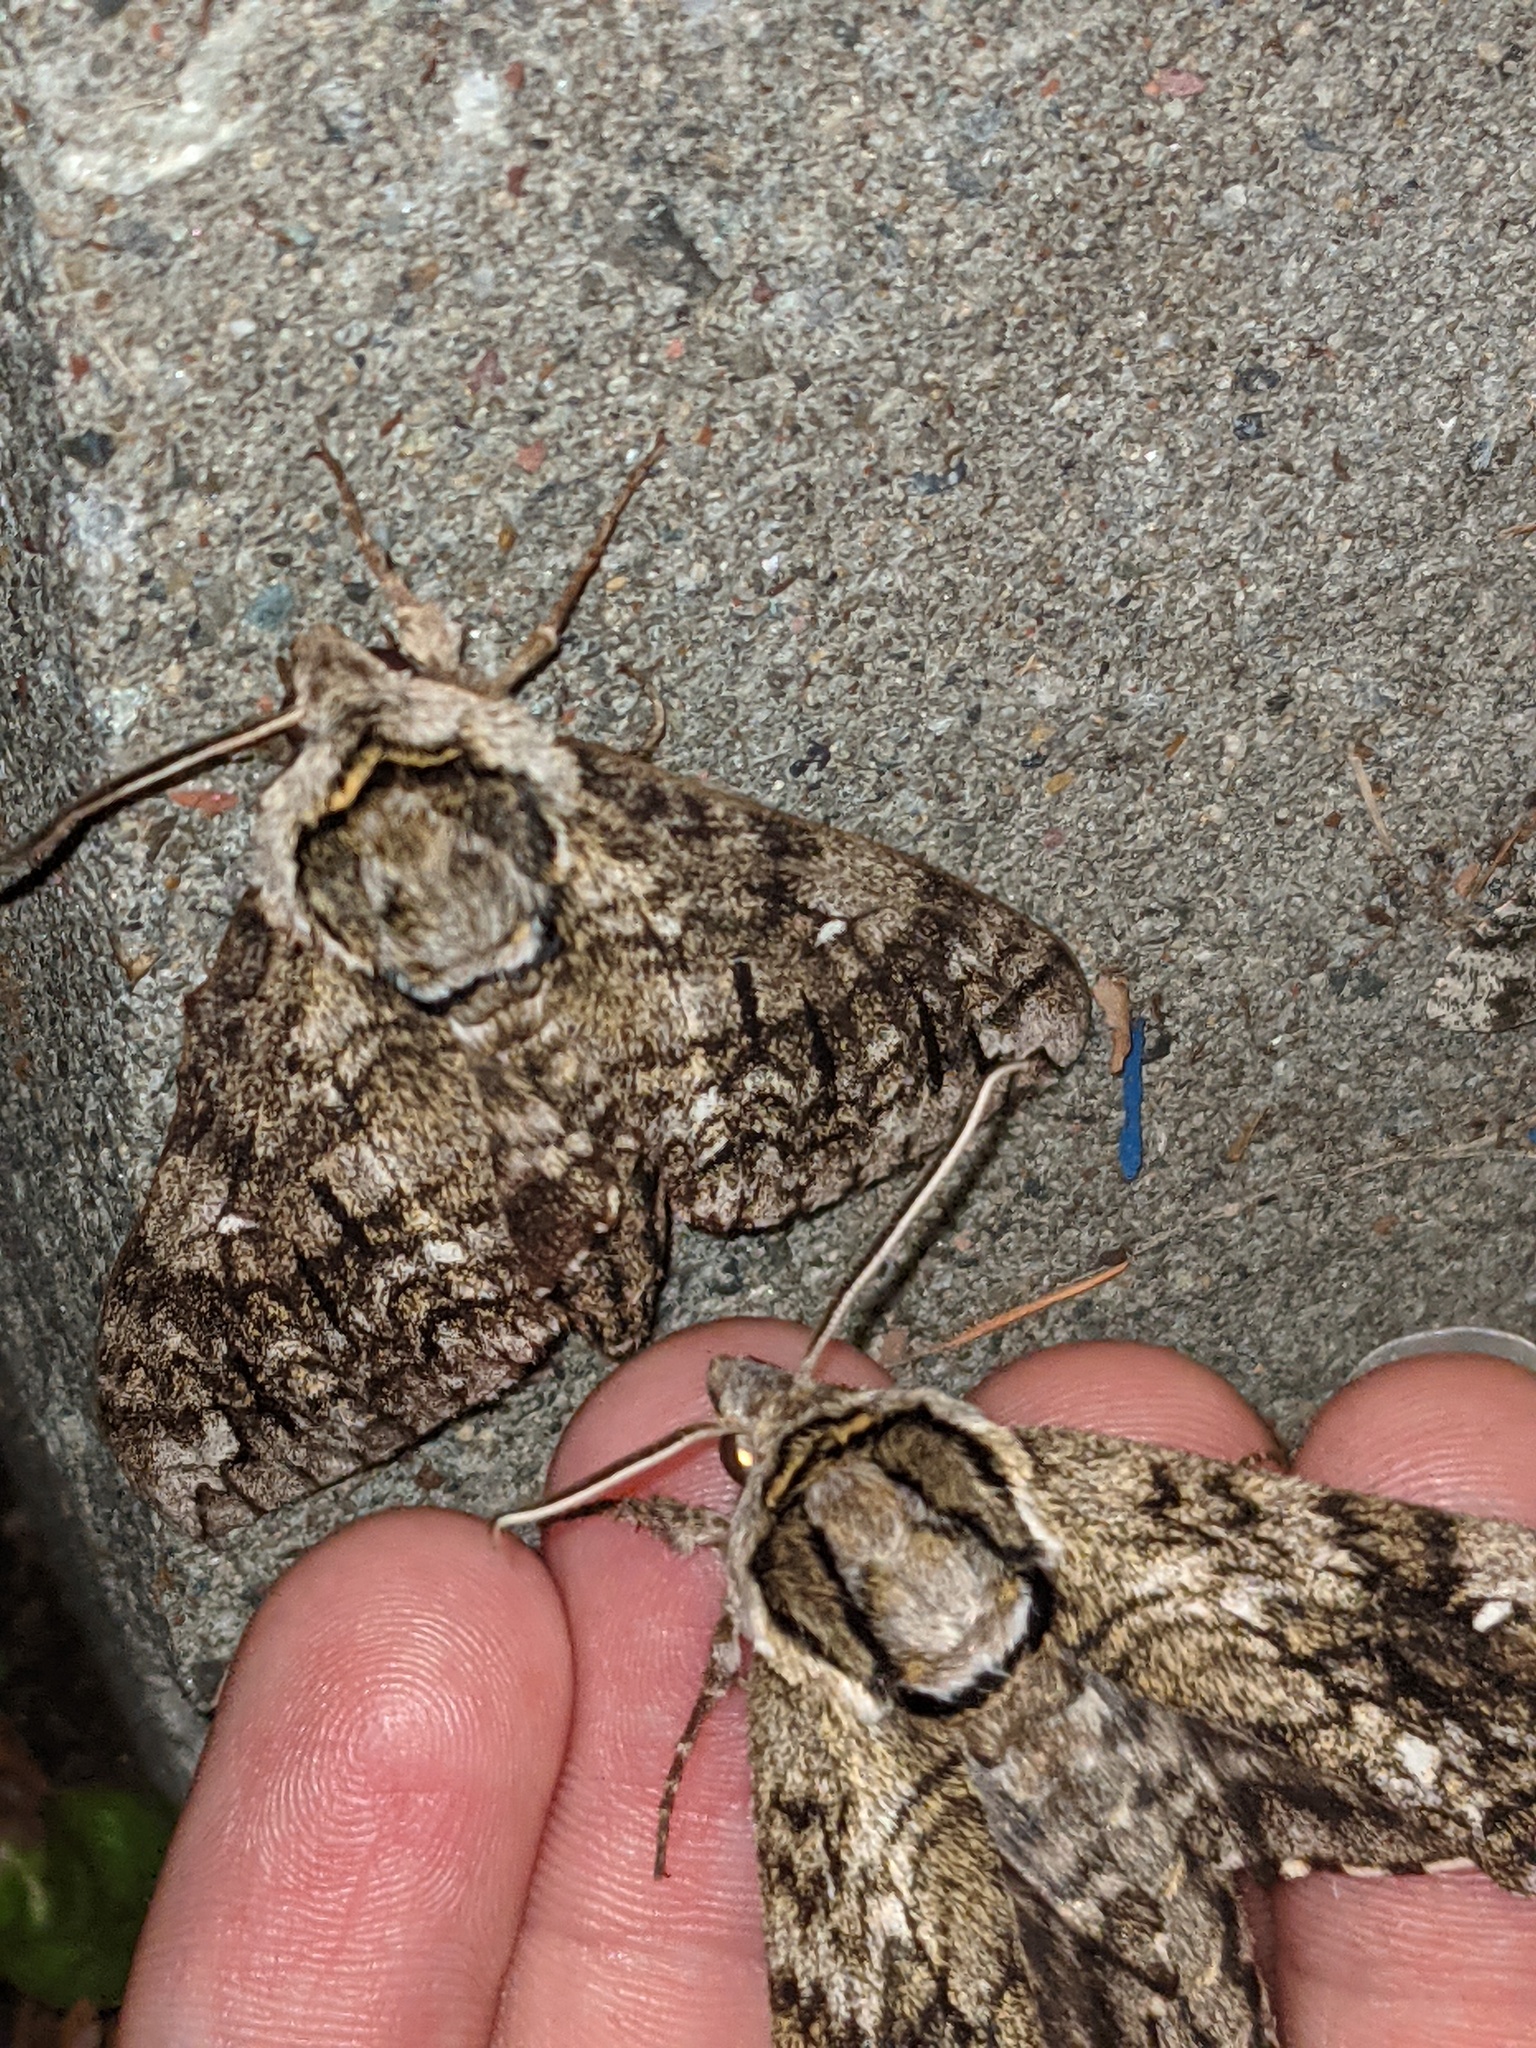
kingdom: Animalia
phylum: Arthropoda
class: Insecta
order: Lepidoptera
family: Sphingidae
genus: Ceratomia
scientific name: Ceratomia undulosa
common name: Waved sphinx
